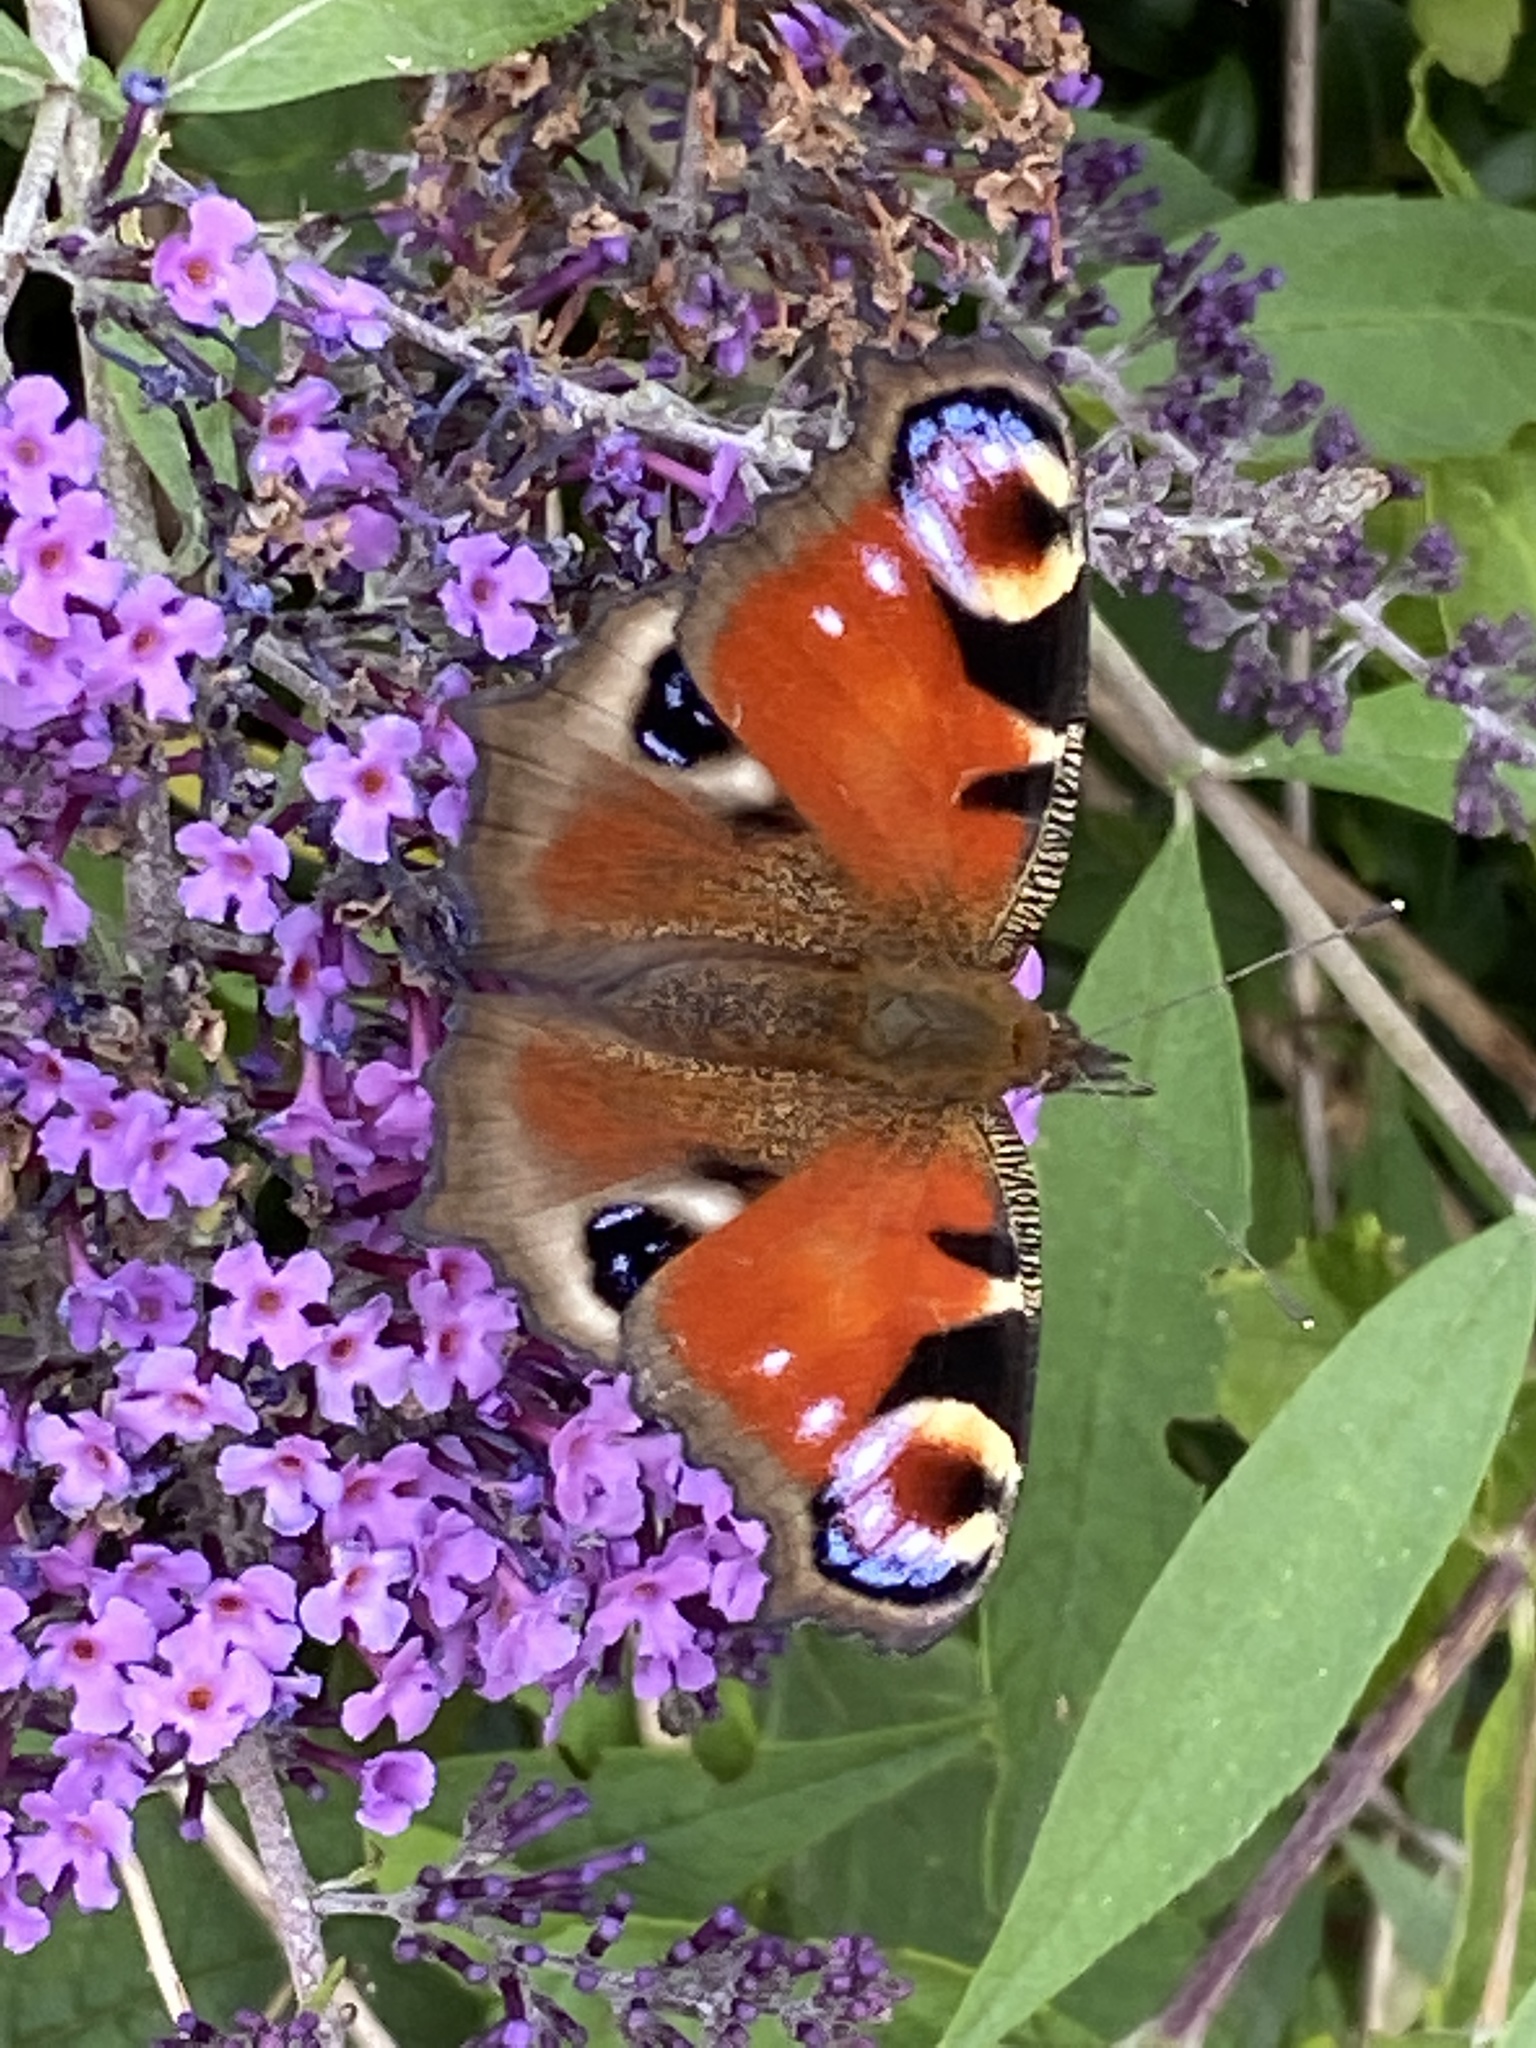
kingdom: Animalia
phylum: Arthropoda
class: Insecta
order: Lepidoptera
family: Nymphalidae
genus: Aglais
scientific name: Aglais io
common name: Peacock
